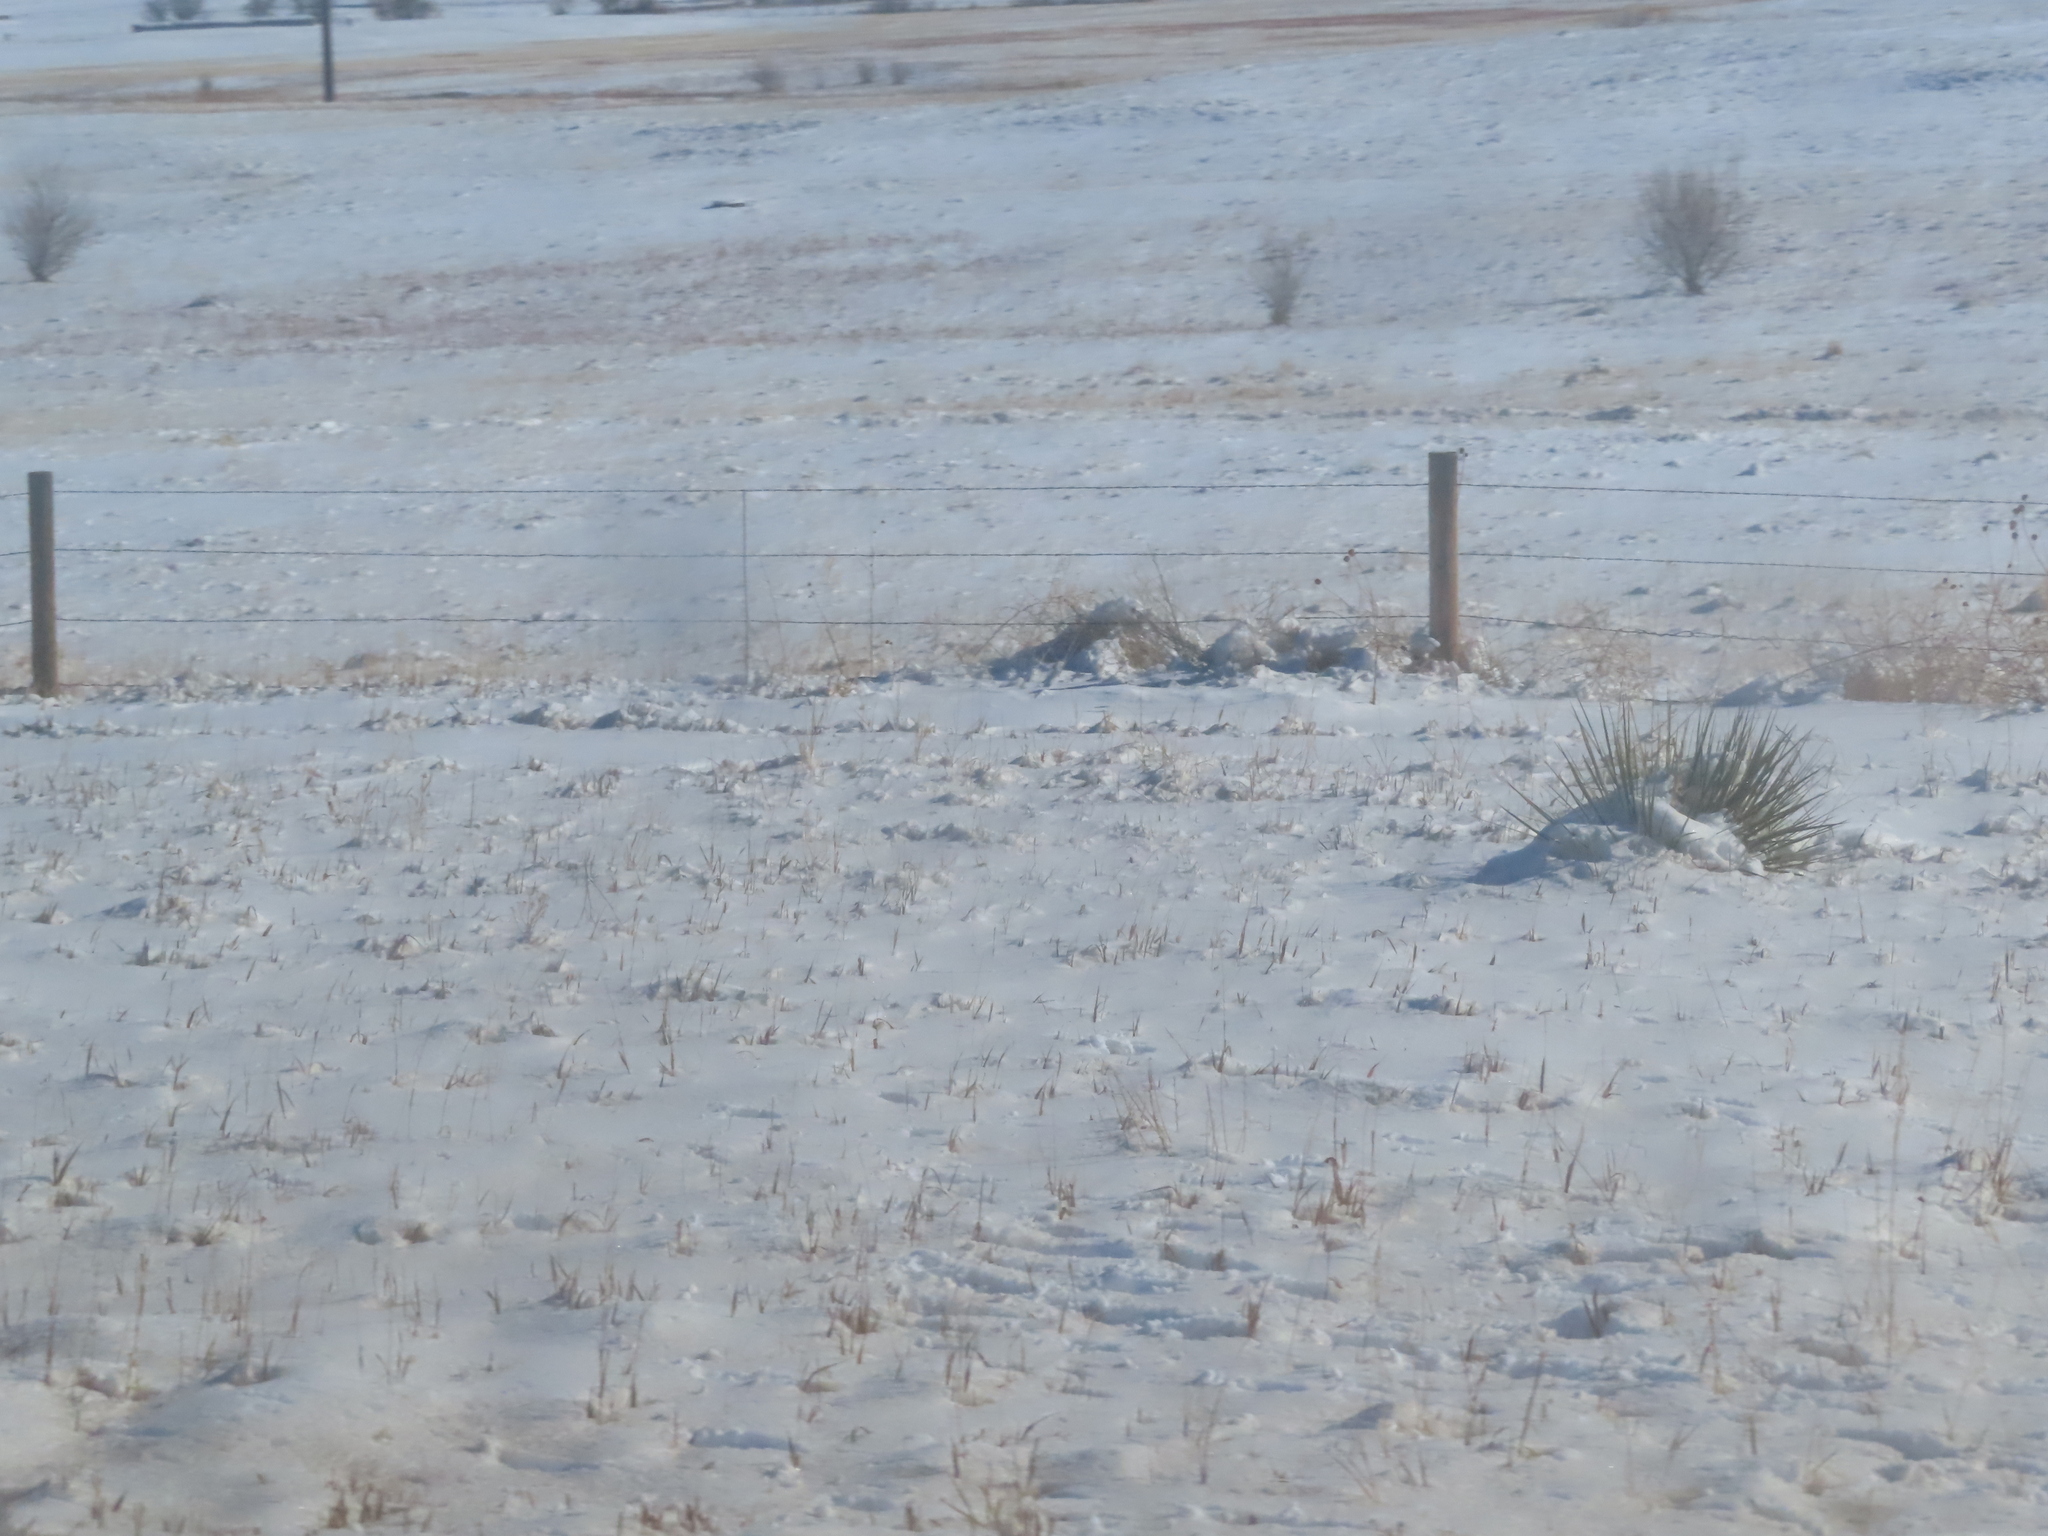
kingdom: Plantae
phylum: Tracheophyta
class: Liliopsida
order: Asparagales
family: Asparagaceae
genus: Yucca
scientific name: Yucca glauca
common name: Great plains yucca
